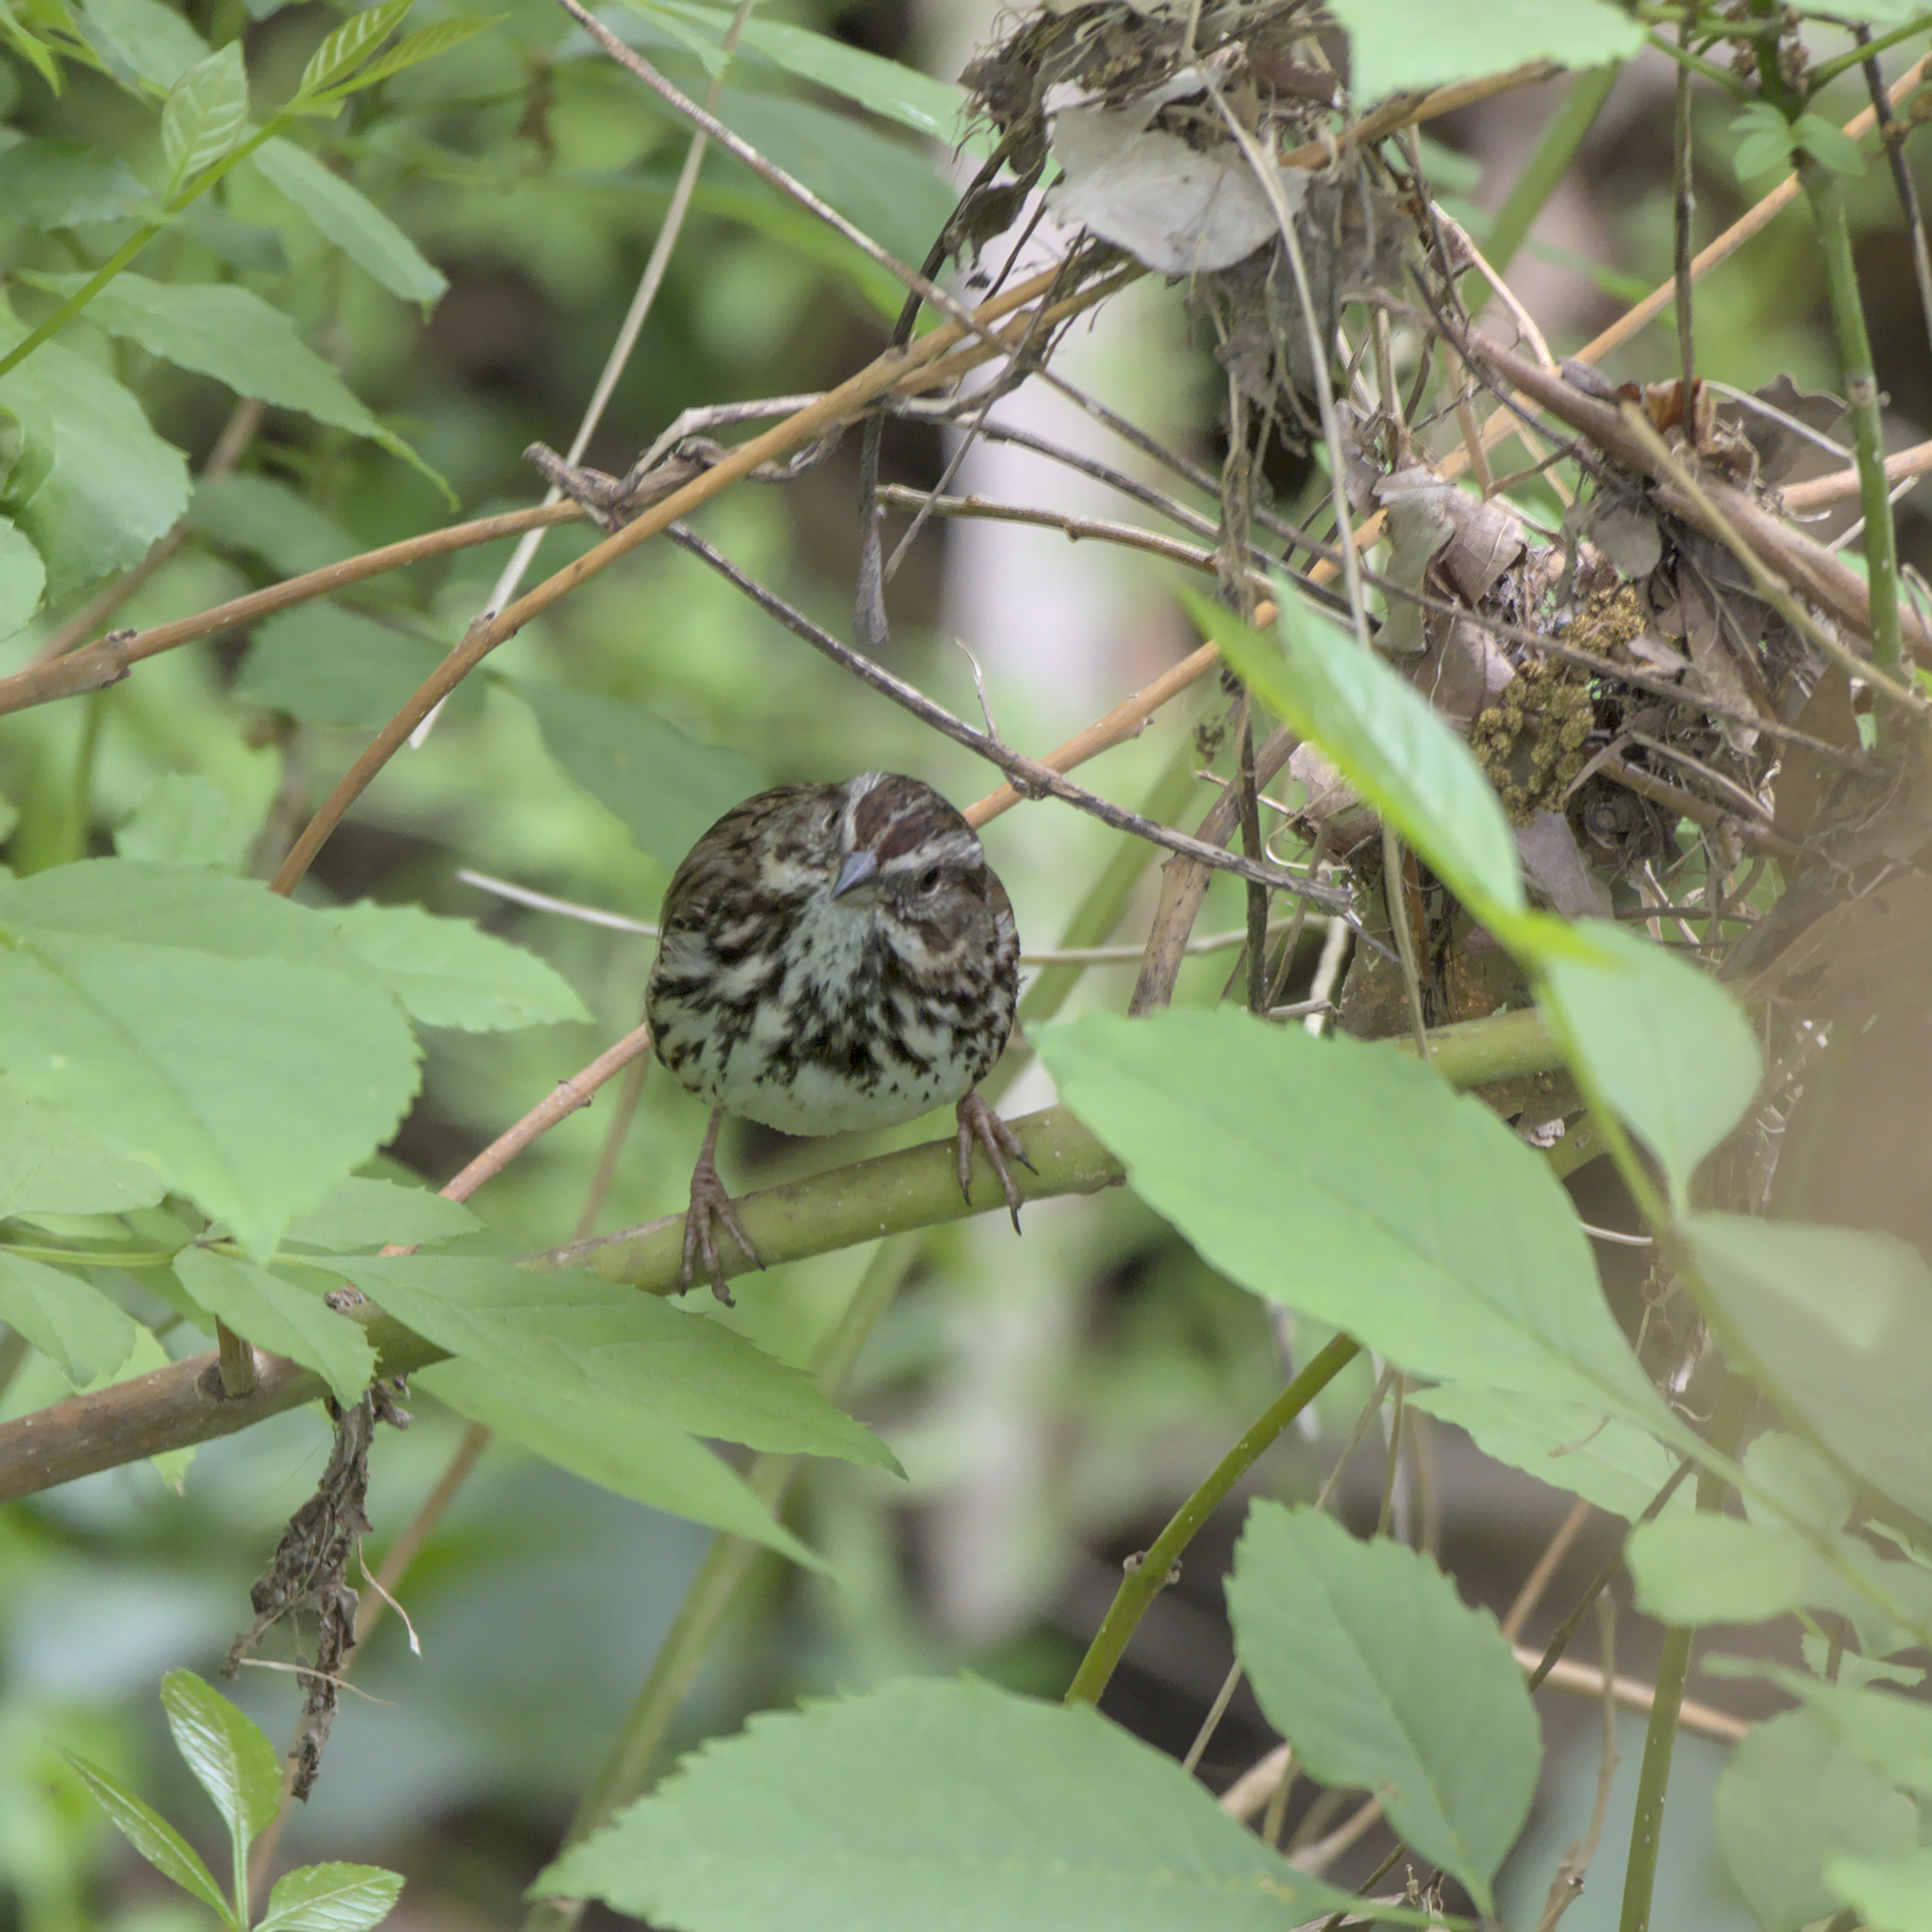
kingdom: Animalia
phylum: Chordata
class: Aves
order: Passeriformes
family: Passerellidae
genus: Melospiza
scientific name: Melospiza melodia
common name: Song sparrow
